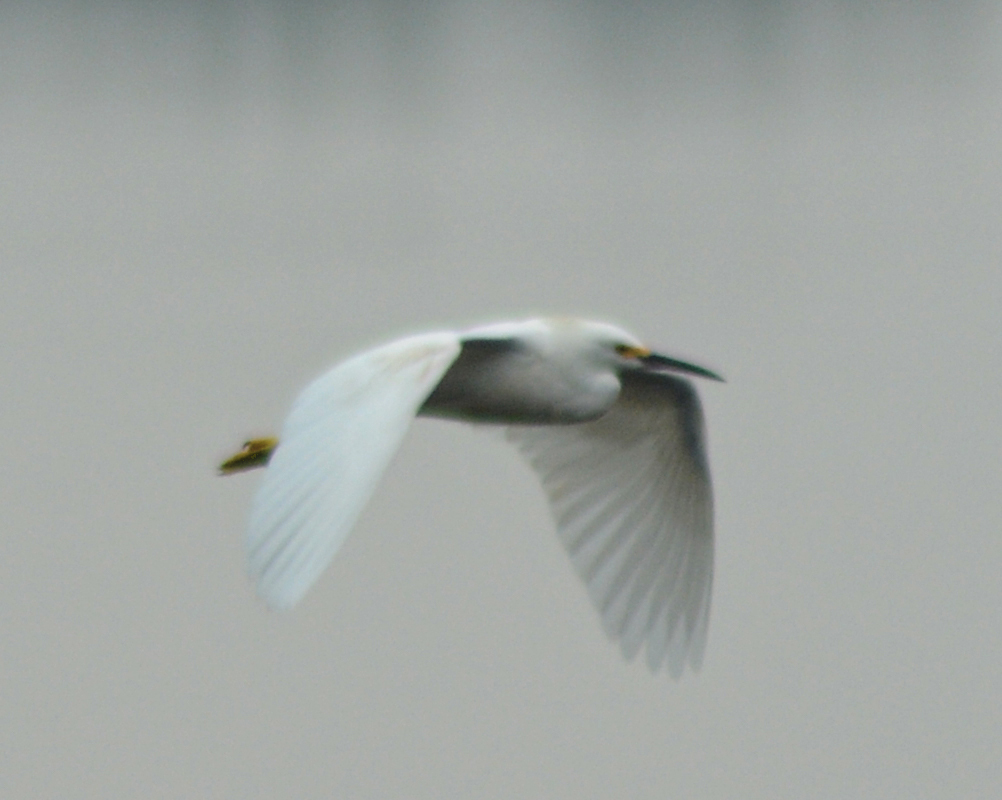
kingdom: Animalia
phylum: Chordata
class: Aves
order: Pelecaniformes
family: Ardeidae
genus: Egretta
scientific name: Egretta thula
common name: Snowy egret
